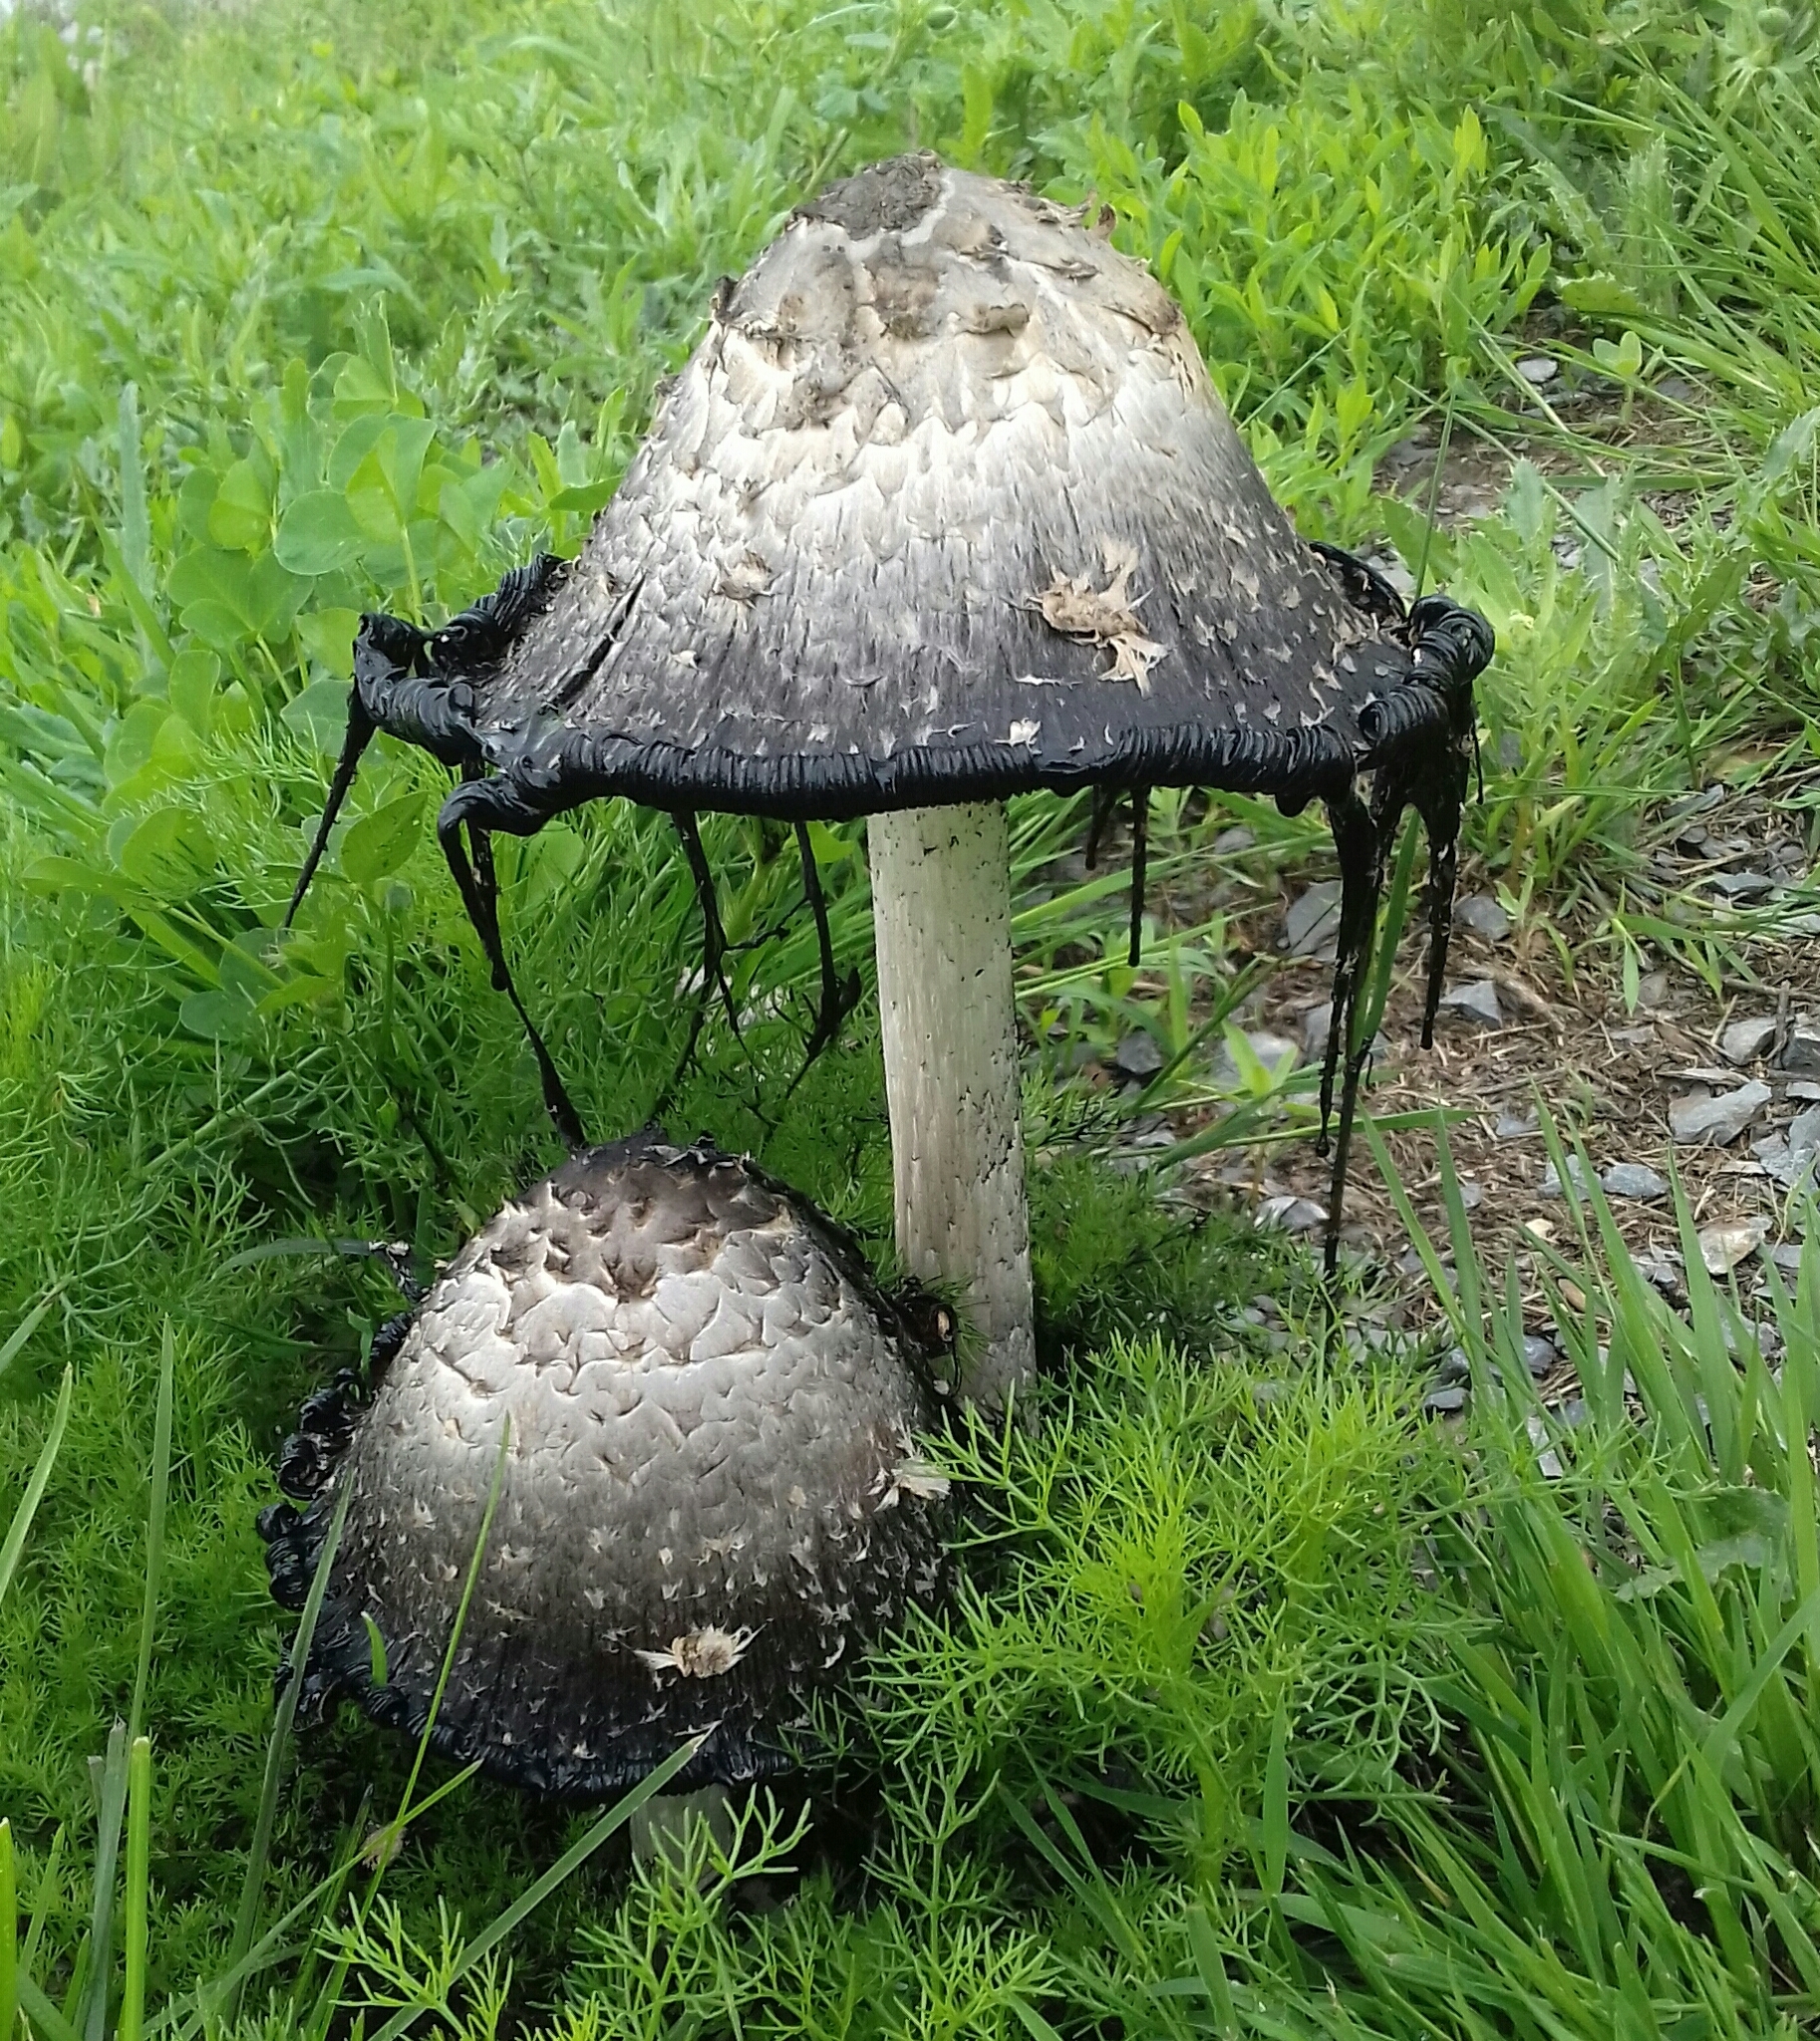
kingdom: Fungi
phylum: Basidiomycota
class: Agaricomycetes
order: Agaricales
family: Agaricaceae
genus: Coprinus
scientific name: Coprinus comatus
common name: Lawyer's wig
